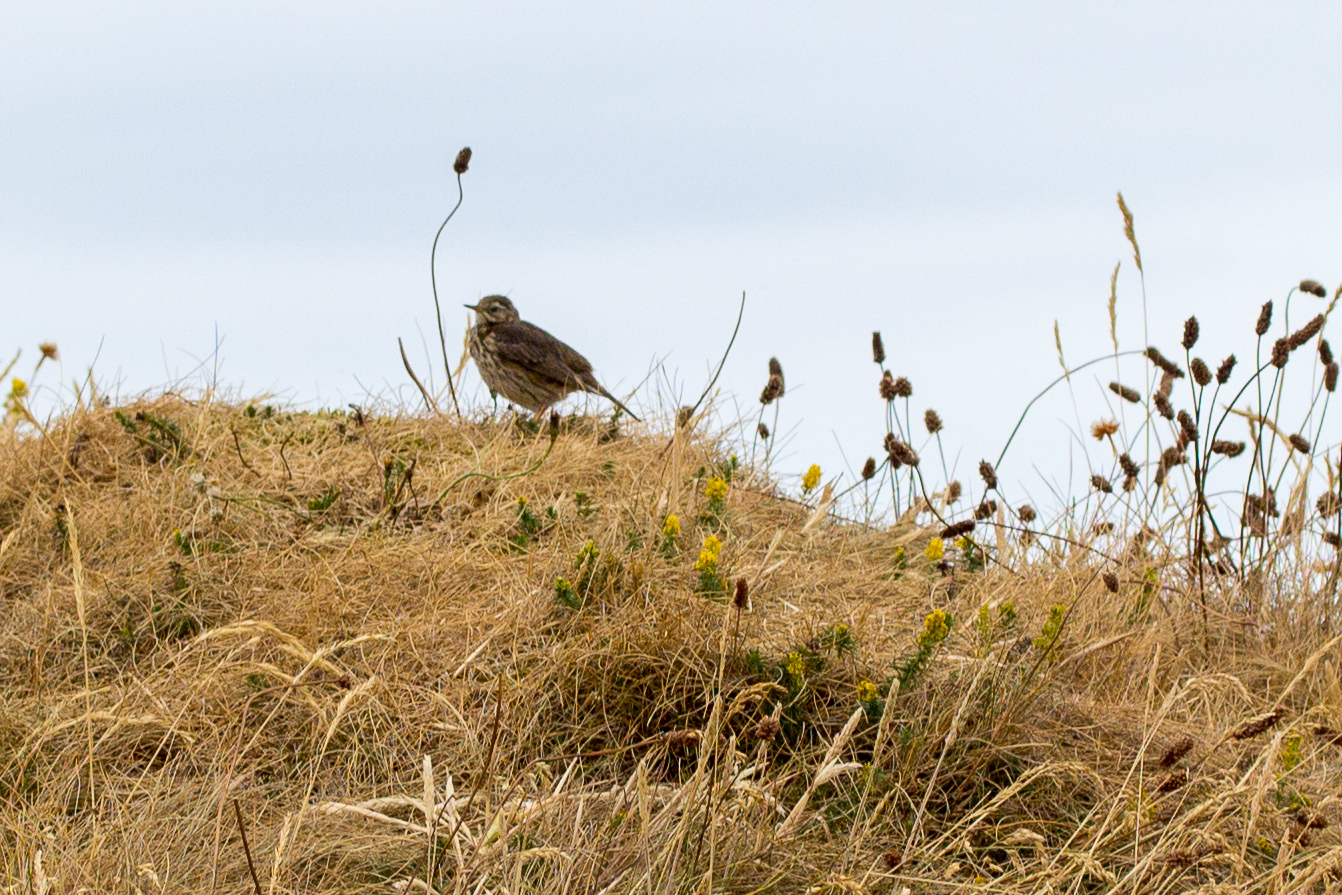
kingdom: Animalia
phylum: Chordata
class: Aves
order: Passeriformes
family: Motacillidae
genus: Anthus
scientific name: Anthus pratensis
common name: Meadow pipit
